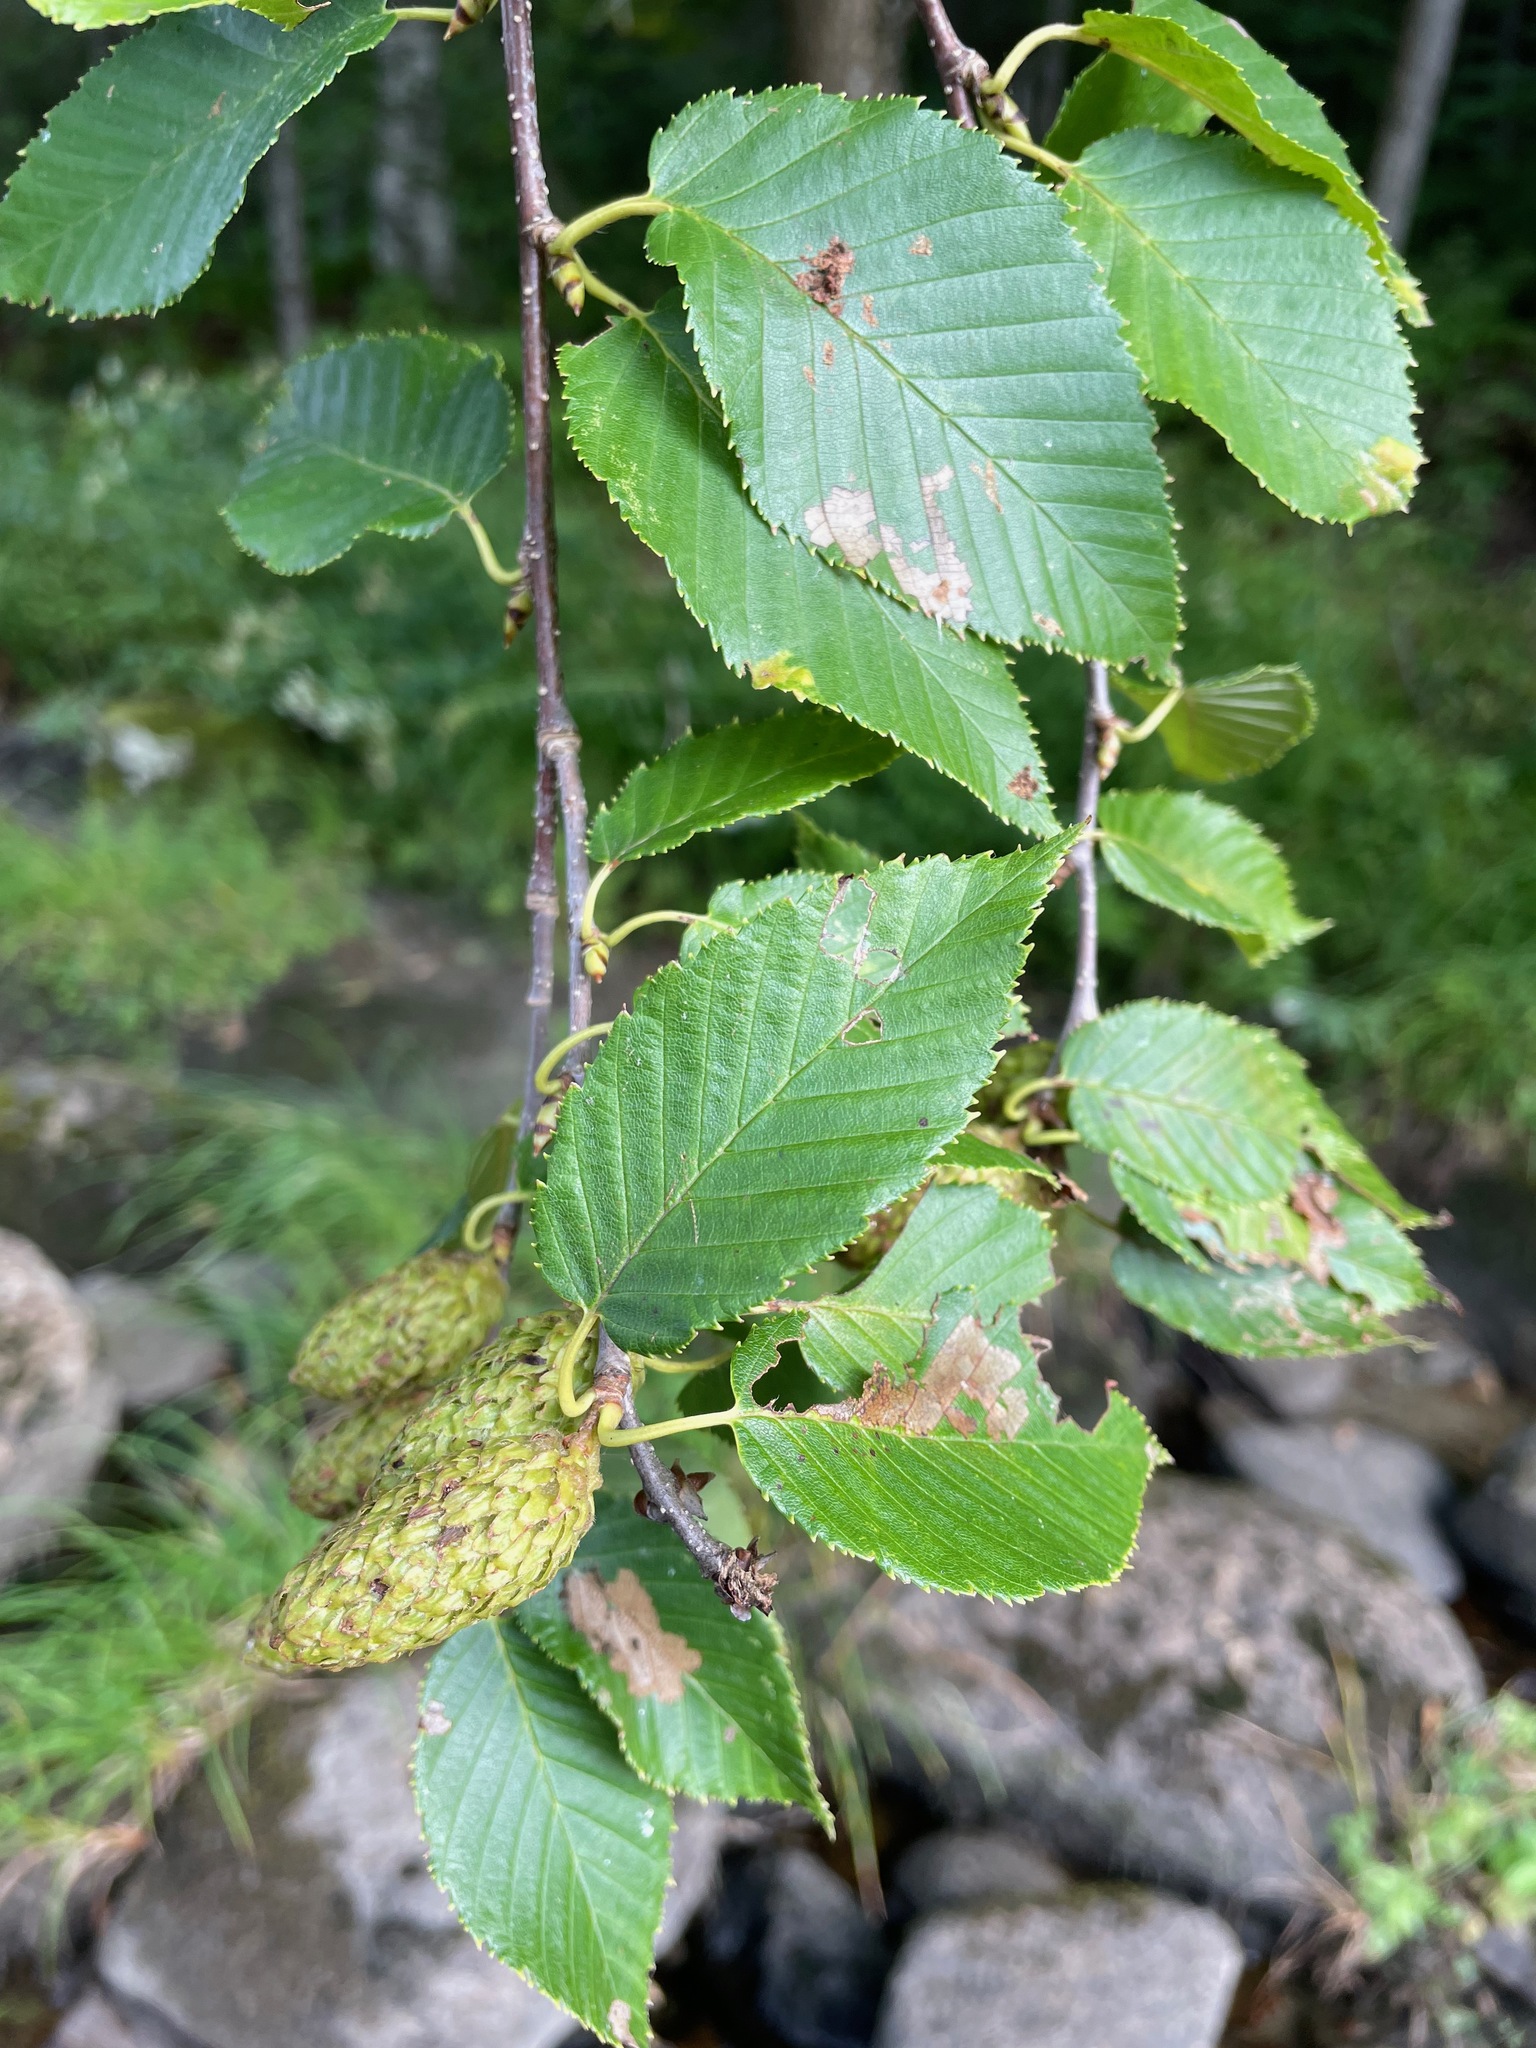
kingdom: Plantae
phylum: Tracheophyta
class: Magnoliopsida
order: Fagales
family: Betulaceae
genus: Betula
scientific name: Betula alleghaniensis
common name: Yellow birch
